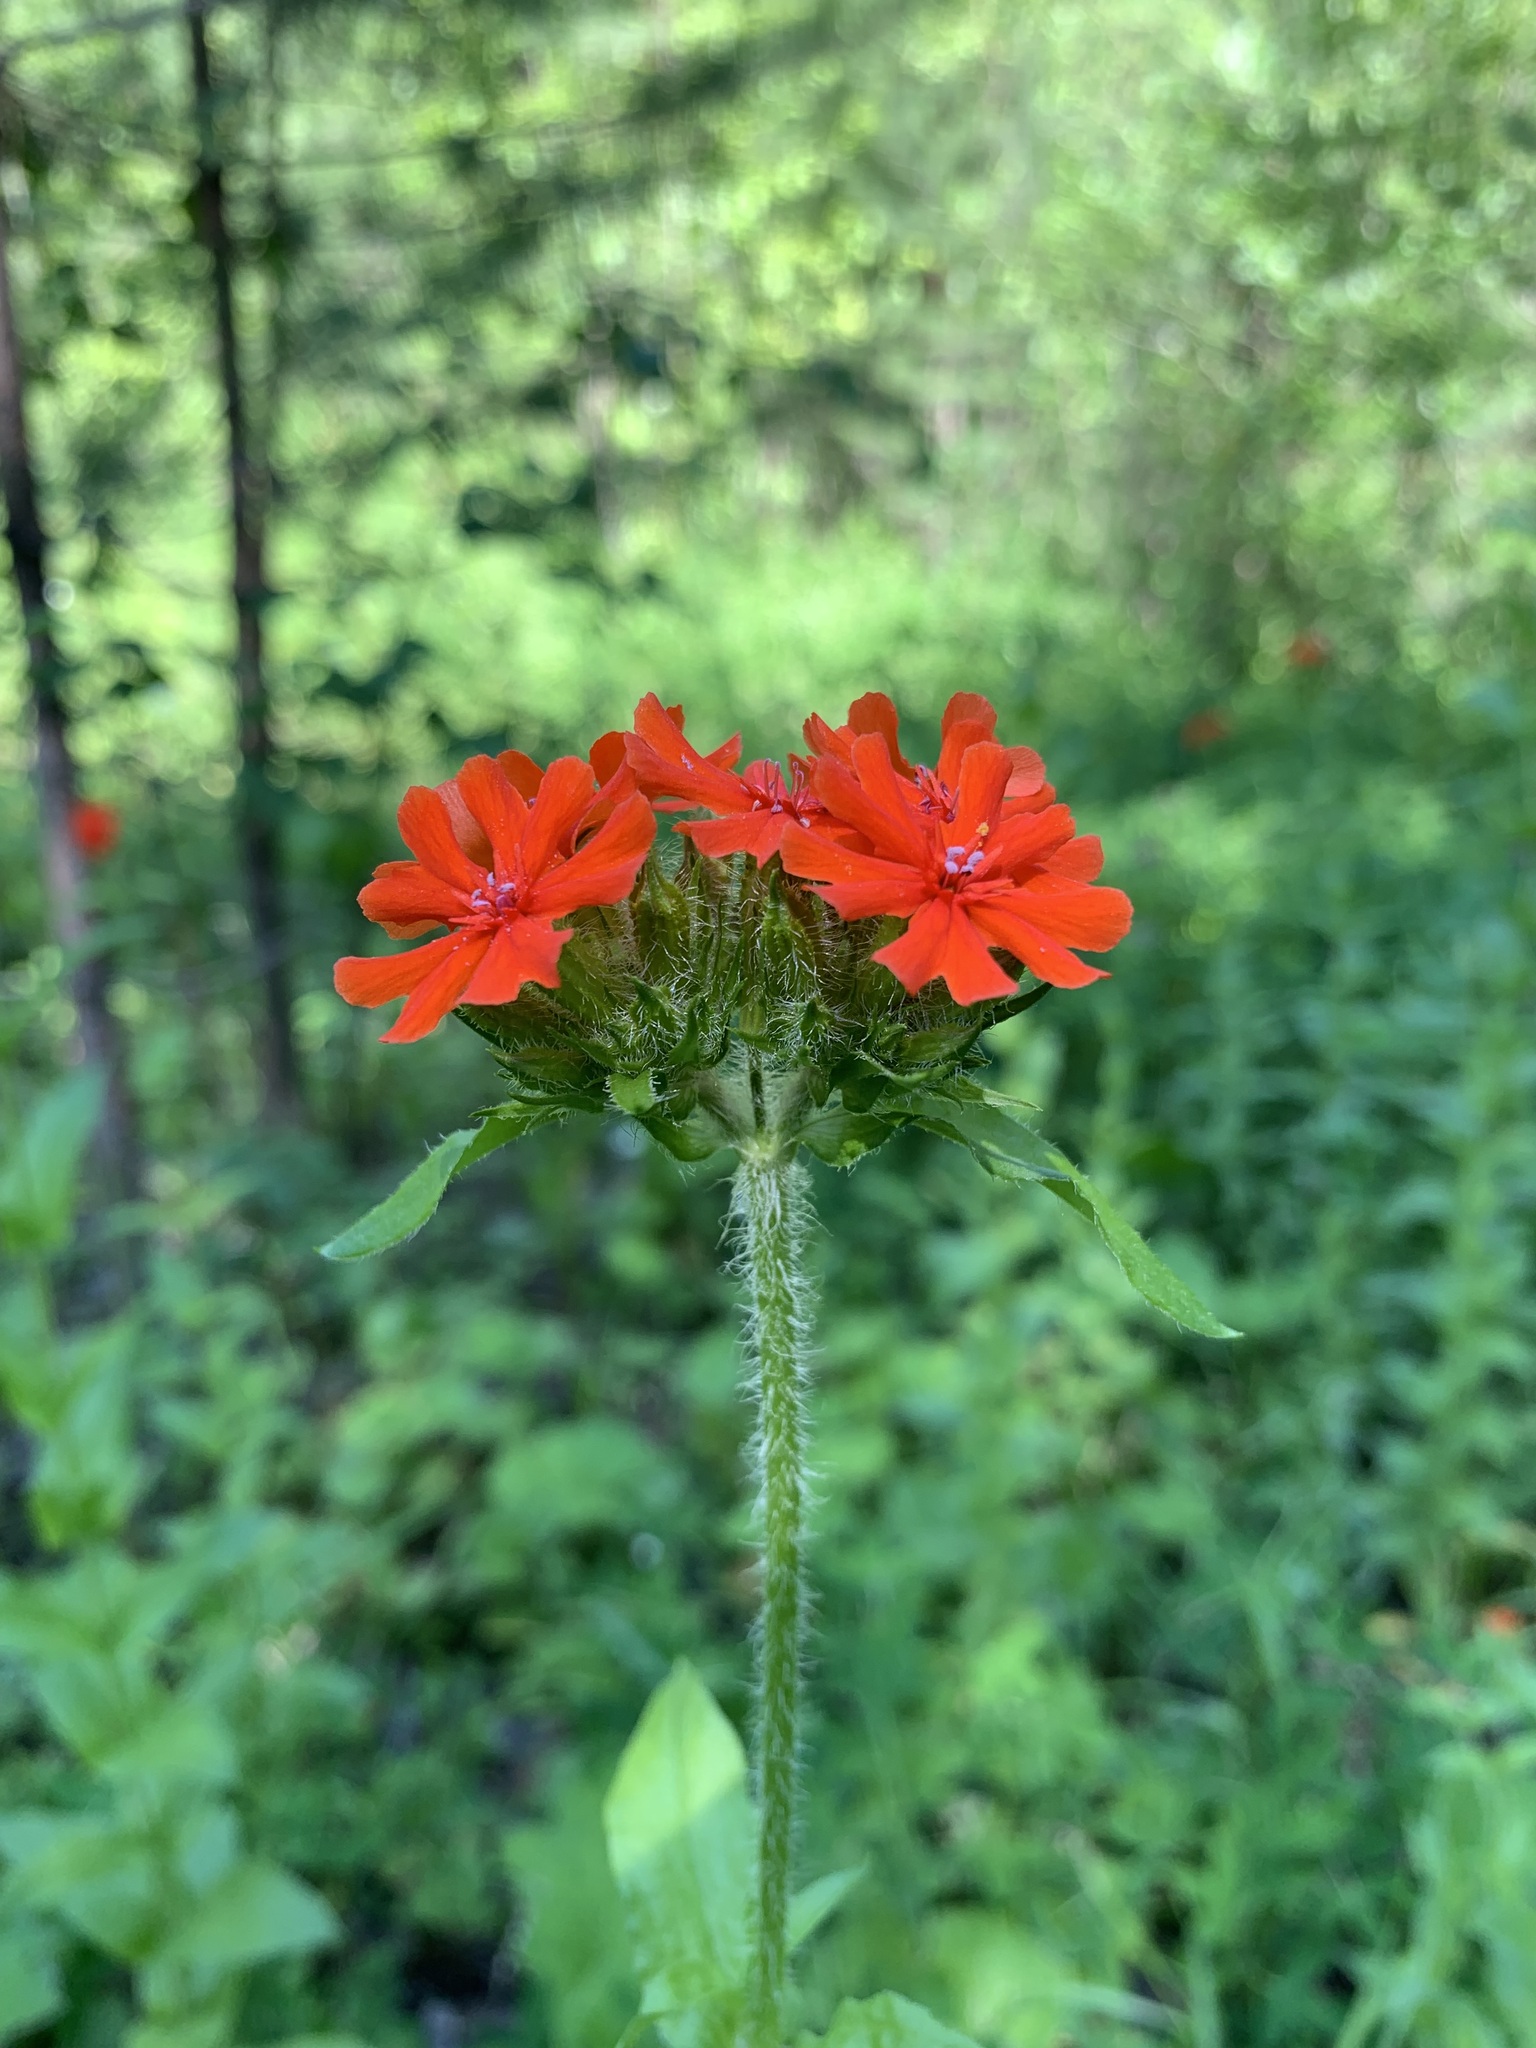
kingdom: Plantae
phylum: Tracheophyta
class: Magnoliopsida
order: Caryophyllales
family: Caryophyllaceae
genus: Silene
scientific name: Silene chalcedonica
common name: Maltese-cross
